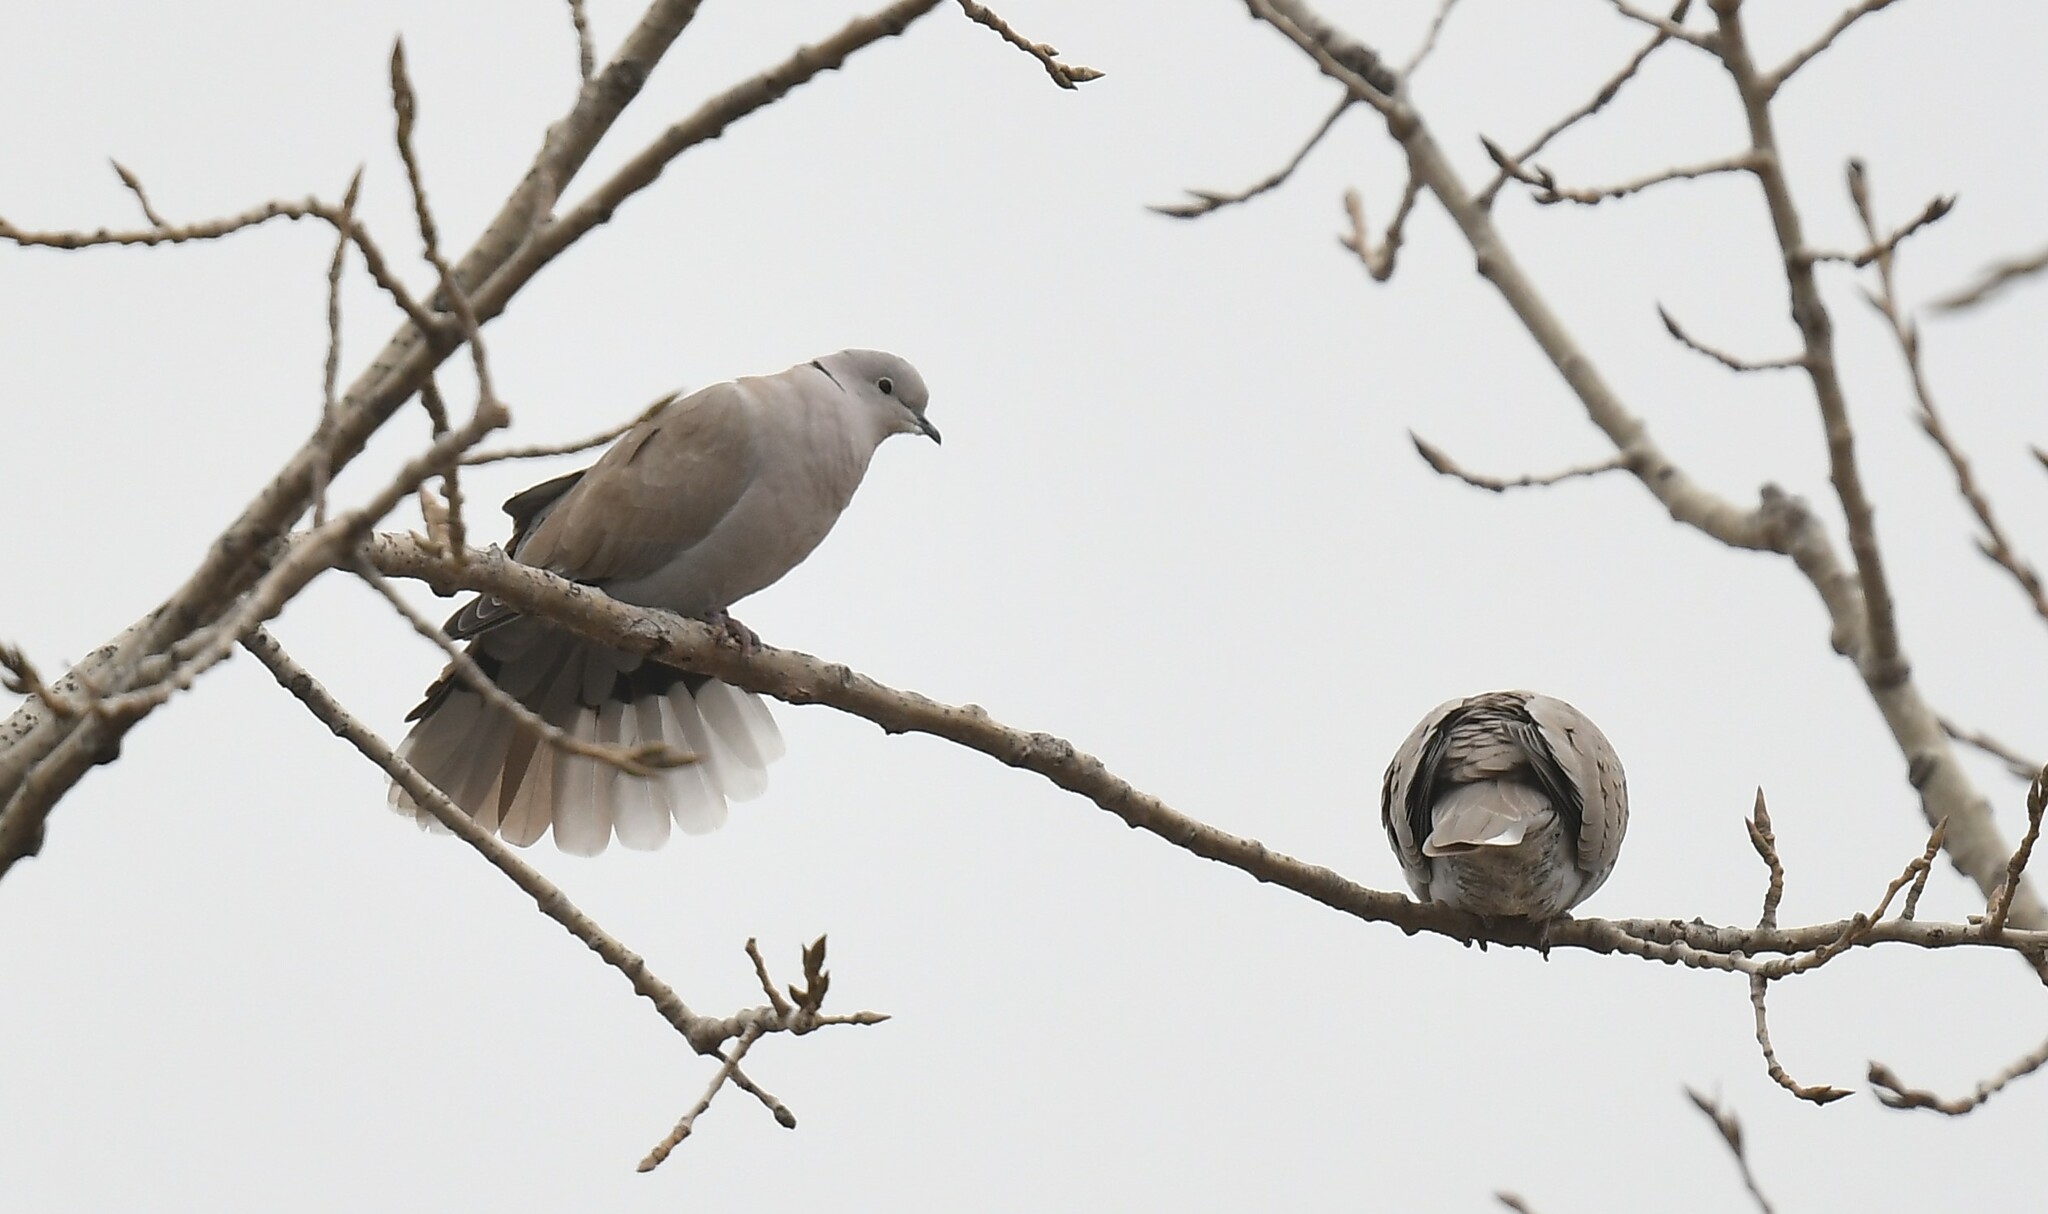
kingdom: Animalia
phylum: Chordata
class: Aves
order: Columbiformes
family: Columbidae
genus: Streptopelia
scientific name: Streptopelia decaocto
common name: Eurasian collared dove
